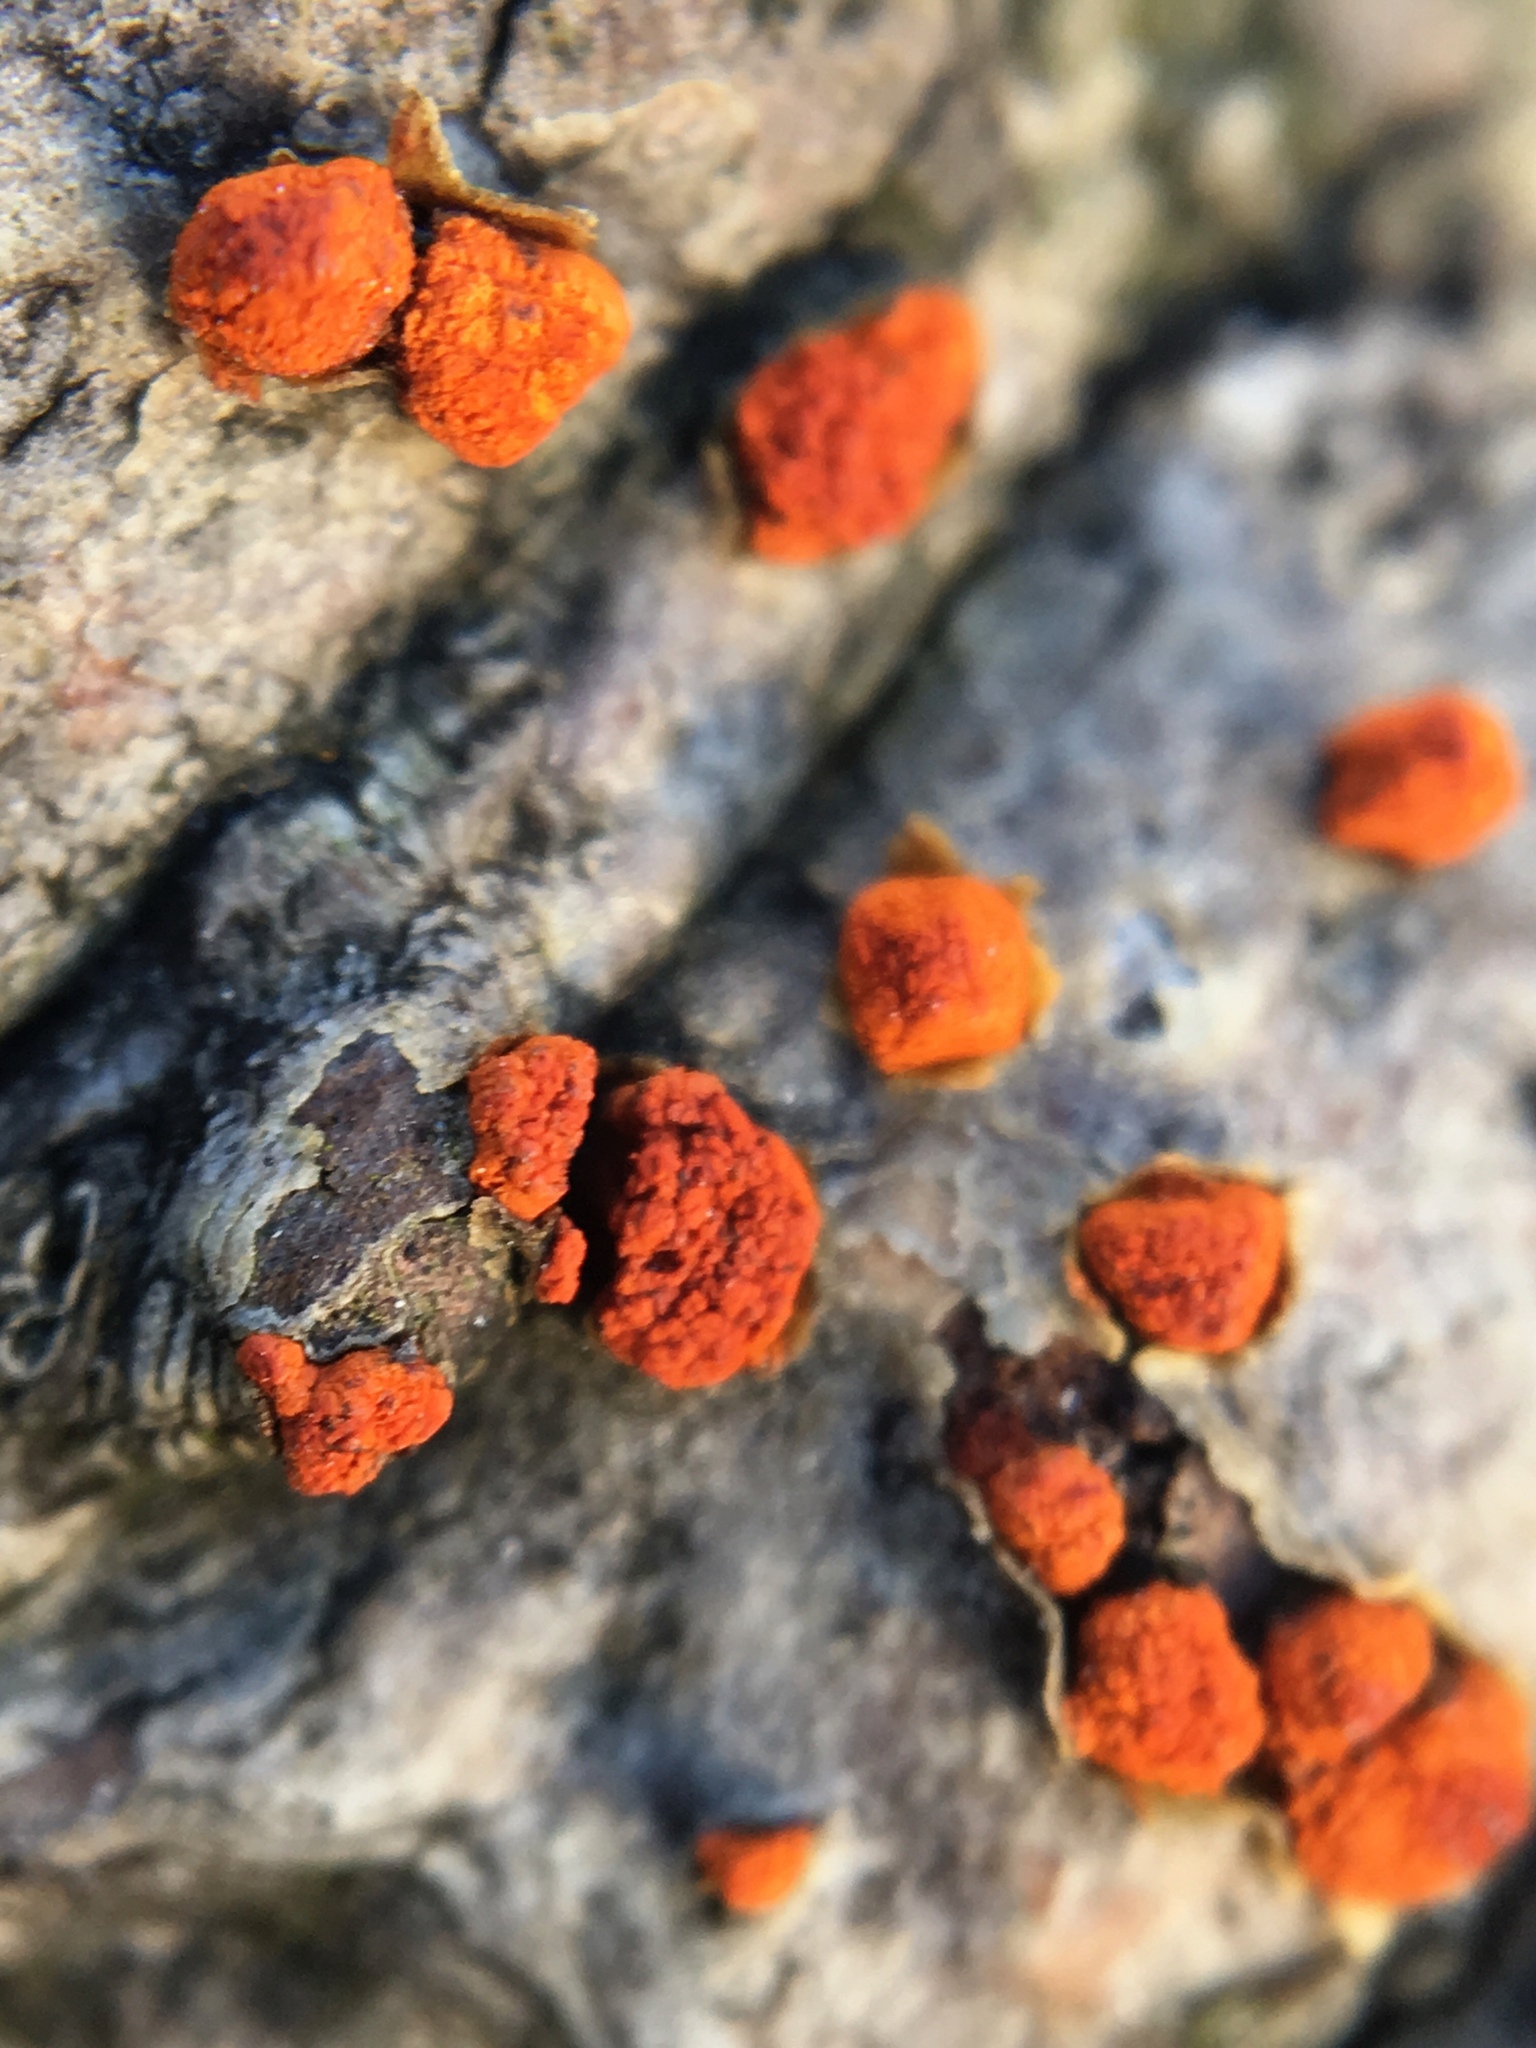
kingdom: Fungi
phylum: Ascomycota
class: Sordariomycetes
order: Diaporthales
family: Cryphonectriaceae
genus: Amphilogia
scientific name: Amphilogia gyrosa
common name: Orange hobnail canker
